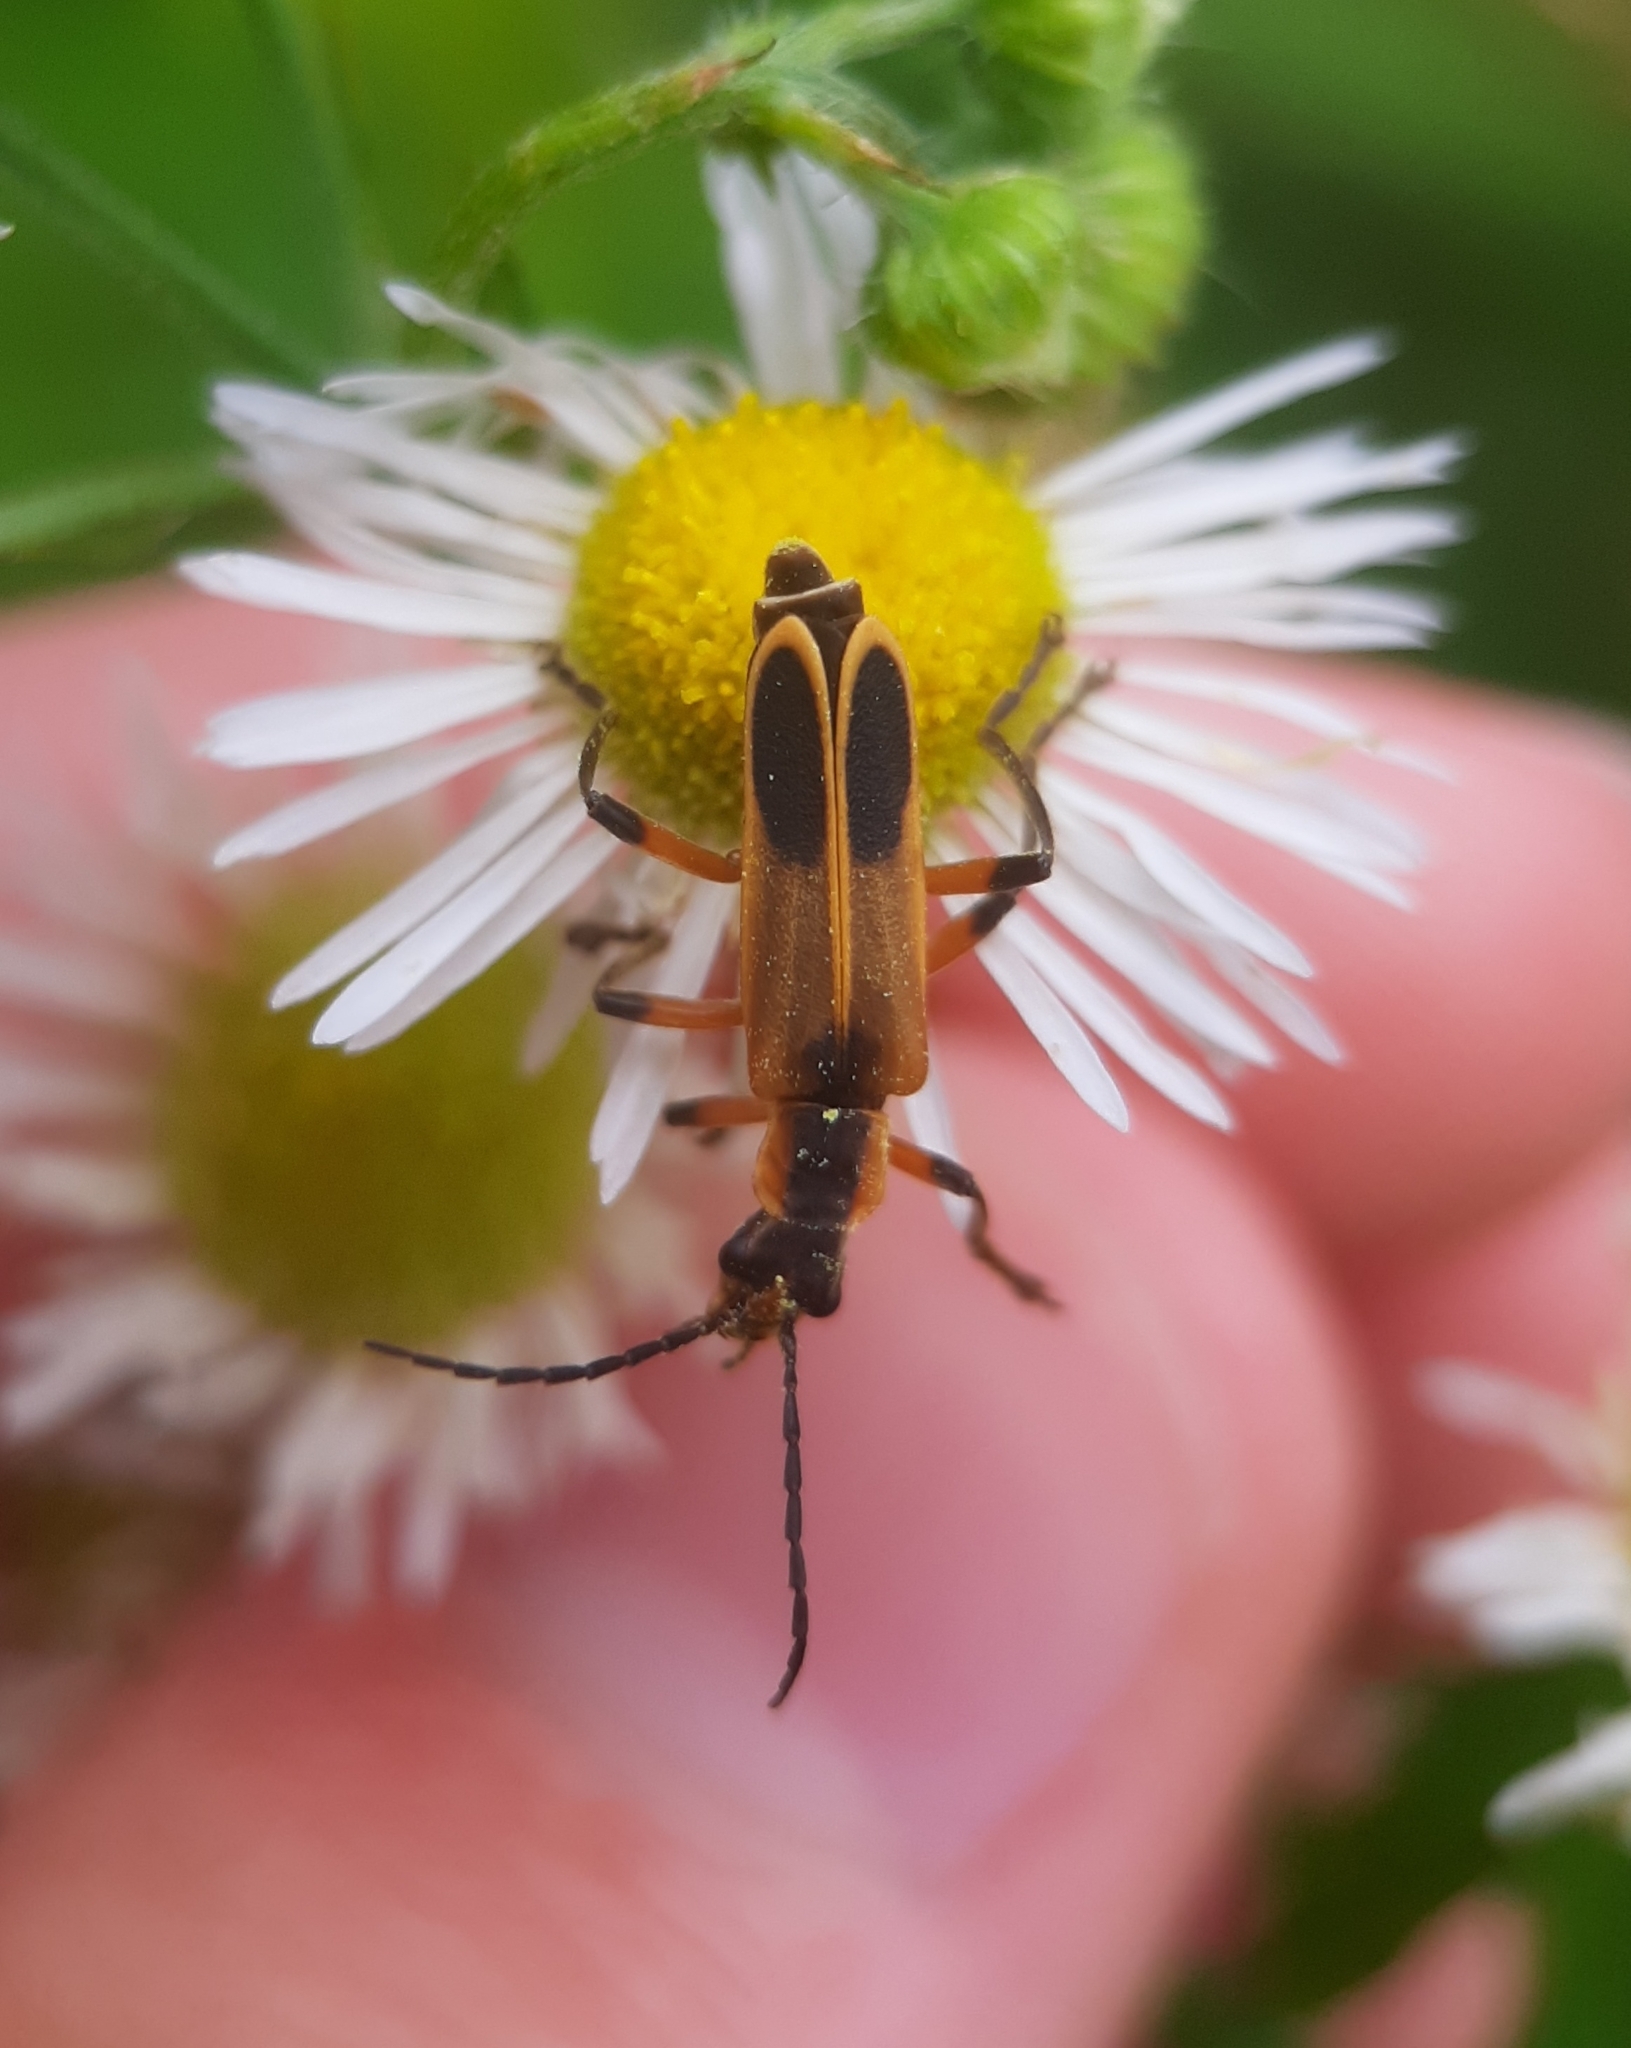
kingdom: Animalia
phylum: Arthropoda
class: Insecta
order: Coleoptera
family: Cantharidae
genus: Chauliognathus
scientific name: Chauliognathus marginatus
